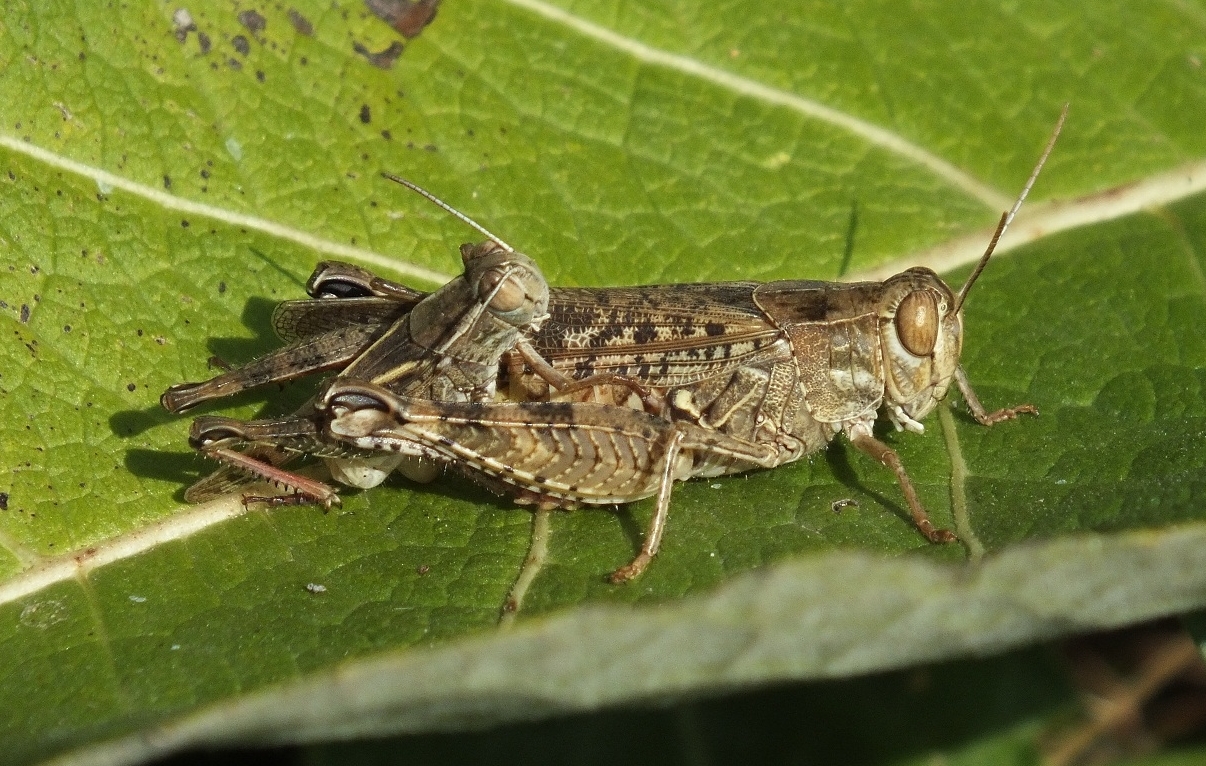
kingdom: Animalia
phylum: Arthropoda
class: Insecta
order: Orthoptera
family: Acrididae
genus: Calliptamus
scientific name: Calliptamus italicus
